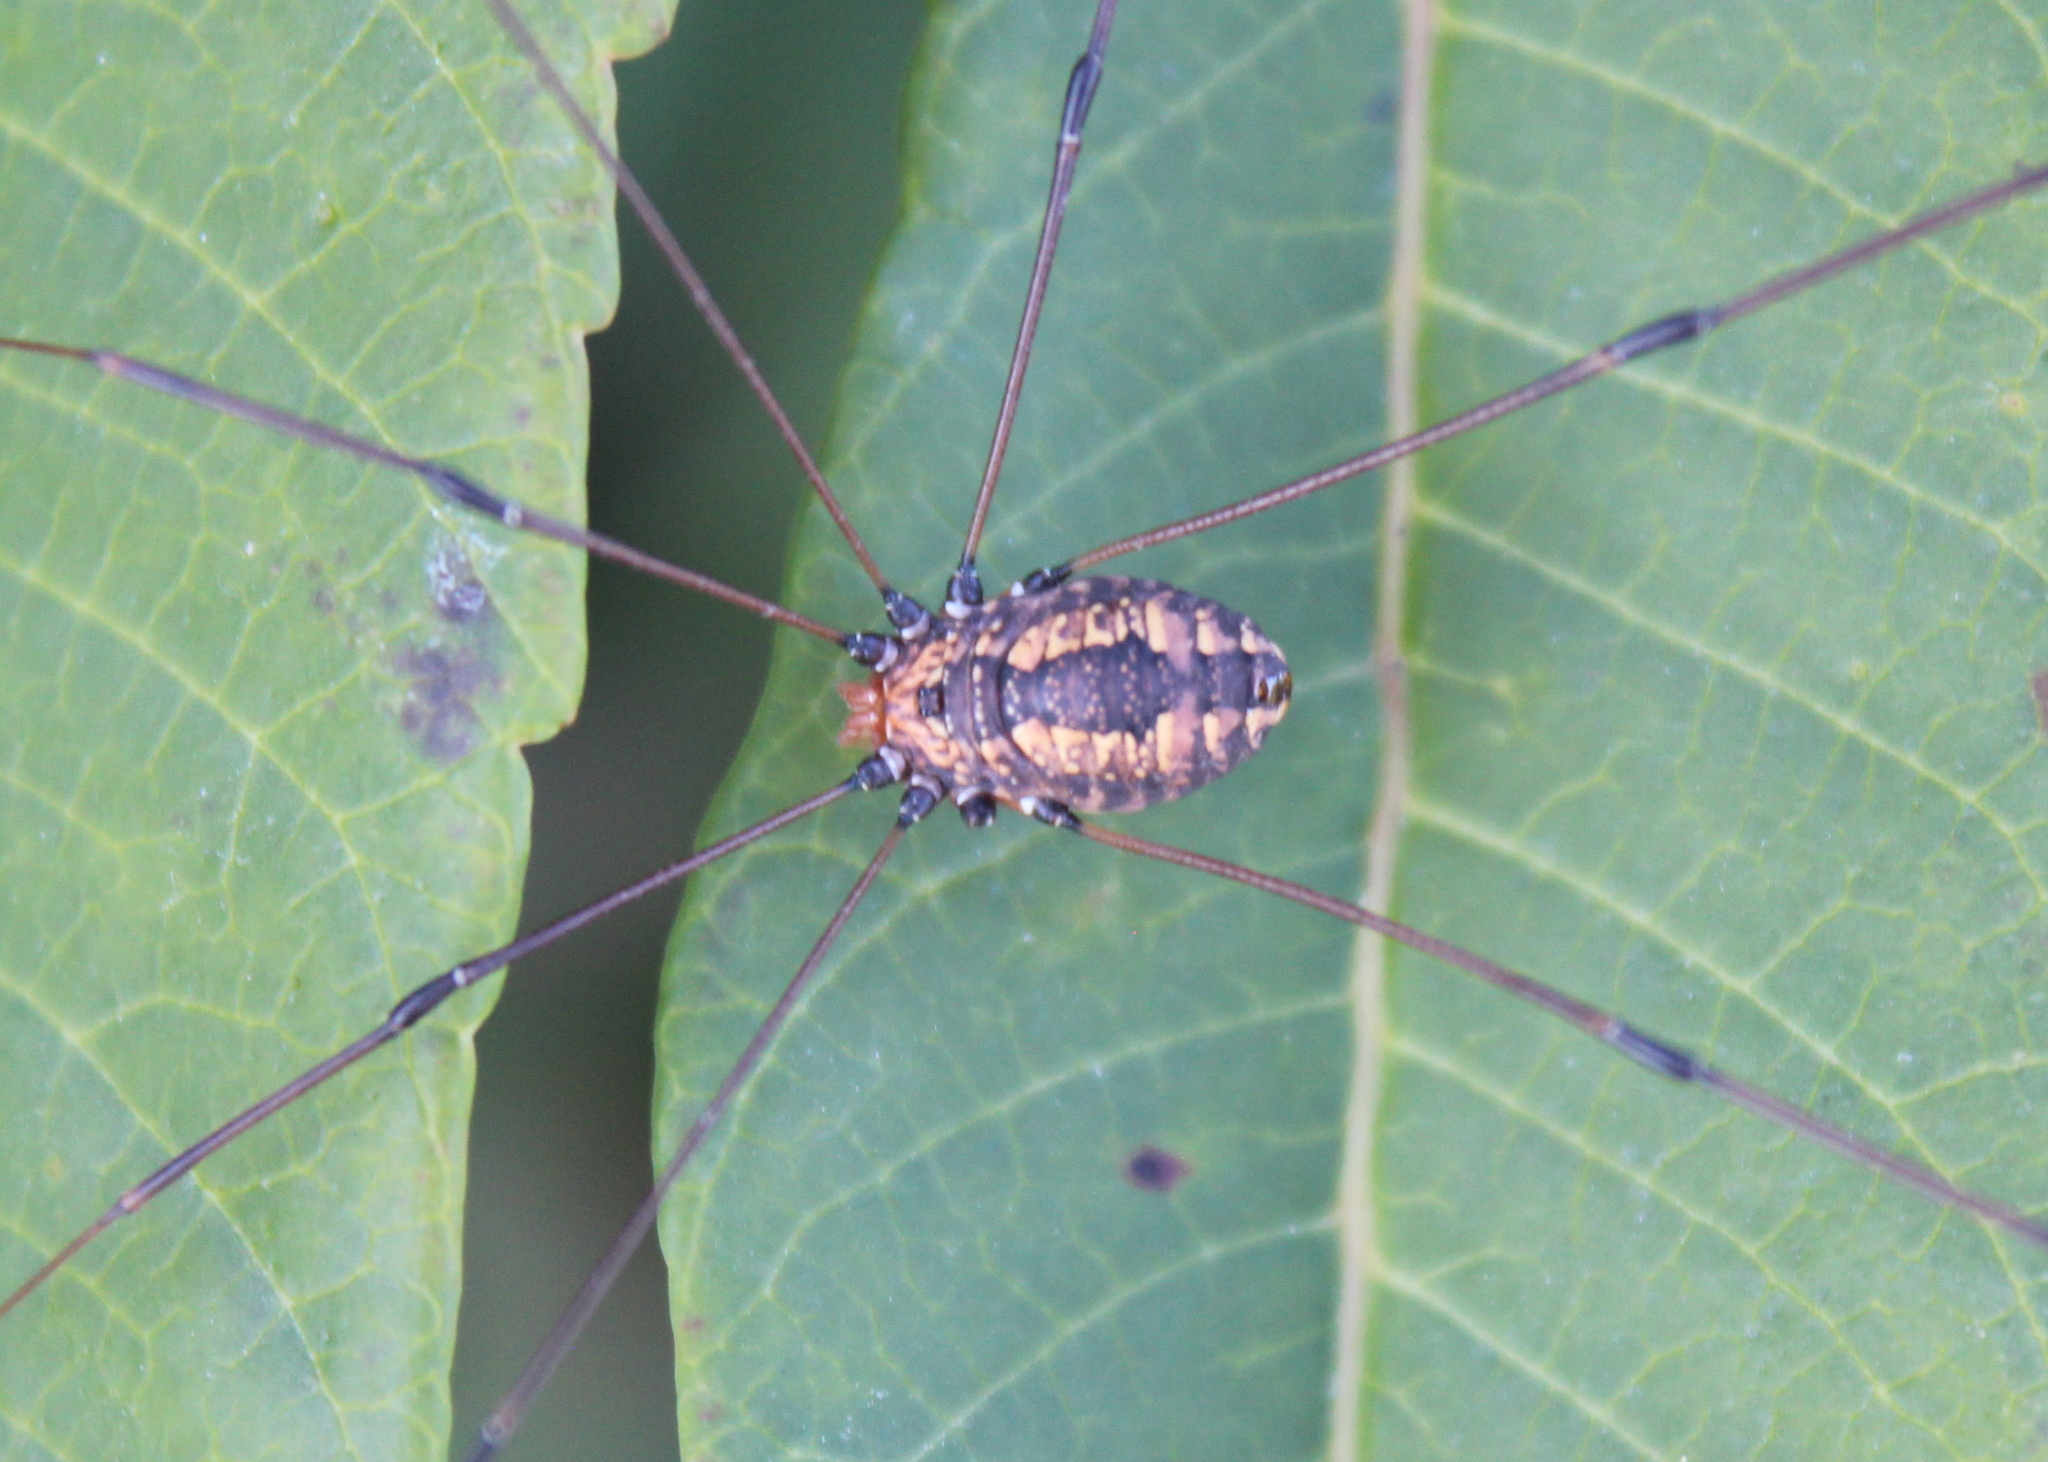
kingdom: Animalia
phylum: Arthropoda
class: Arachnida
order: Opiliones
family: Sclerosomatidae
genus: Leiobunum
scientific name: Leiobunum vittatum
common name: Eastern harvestman
